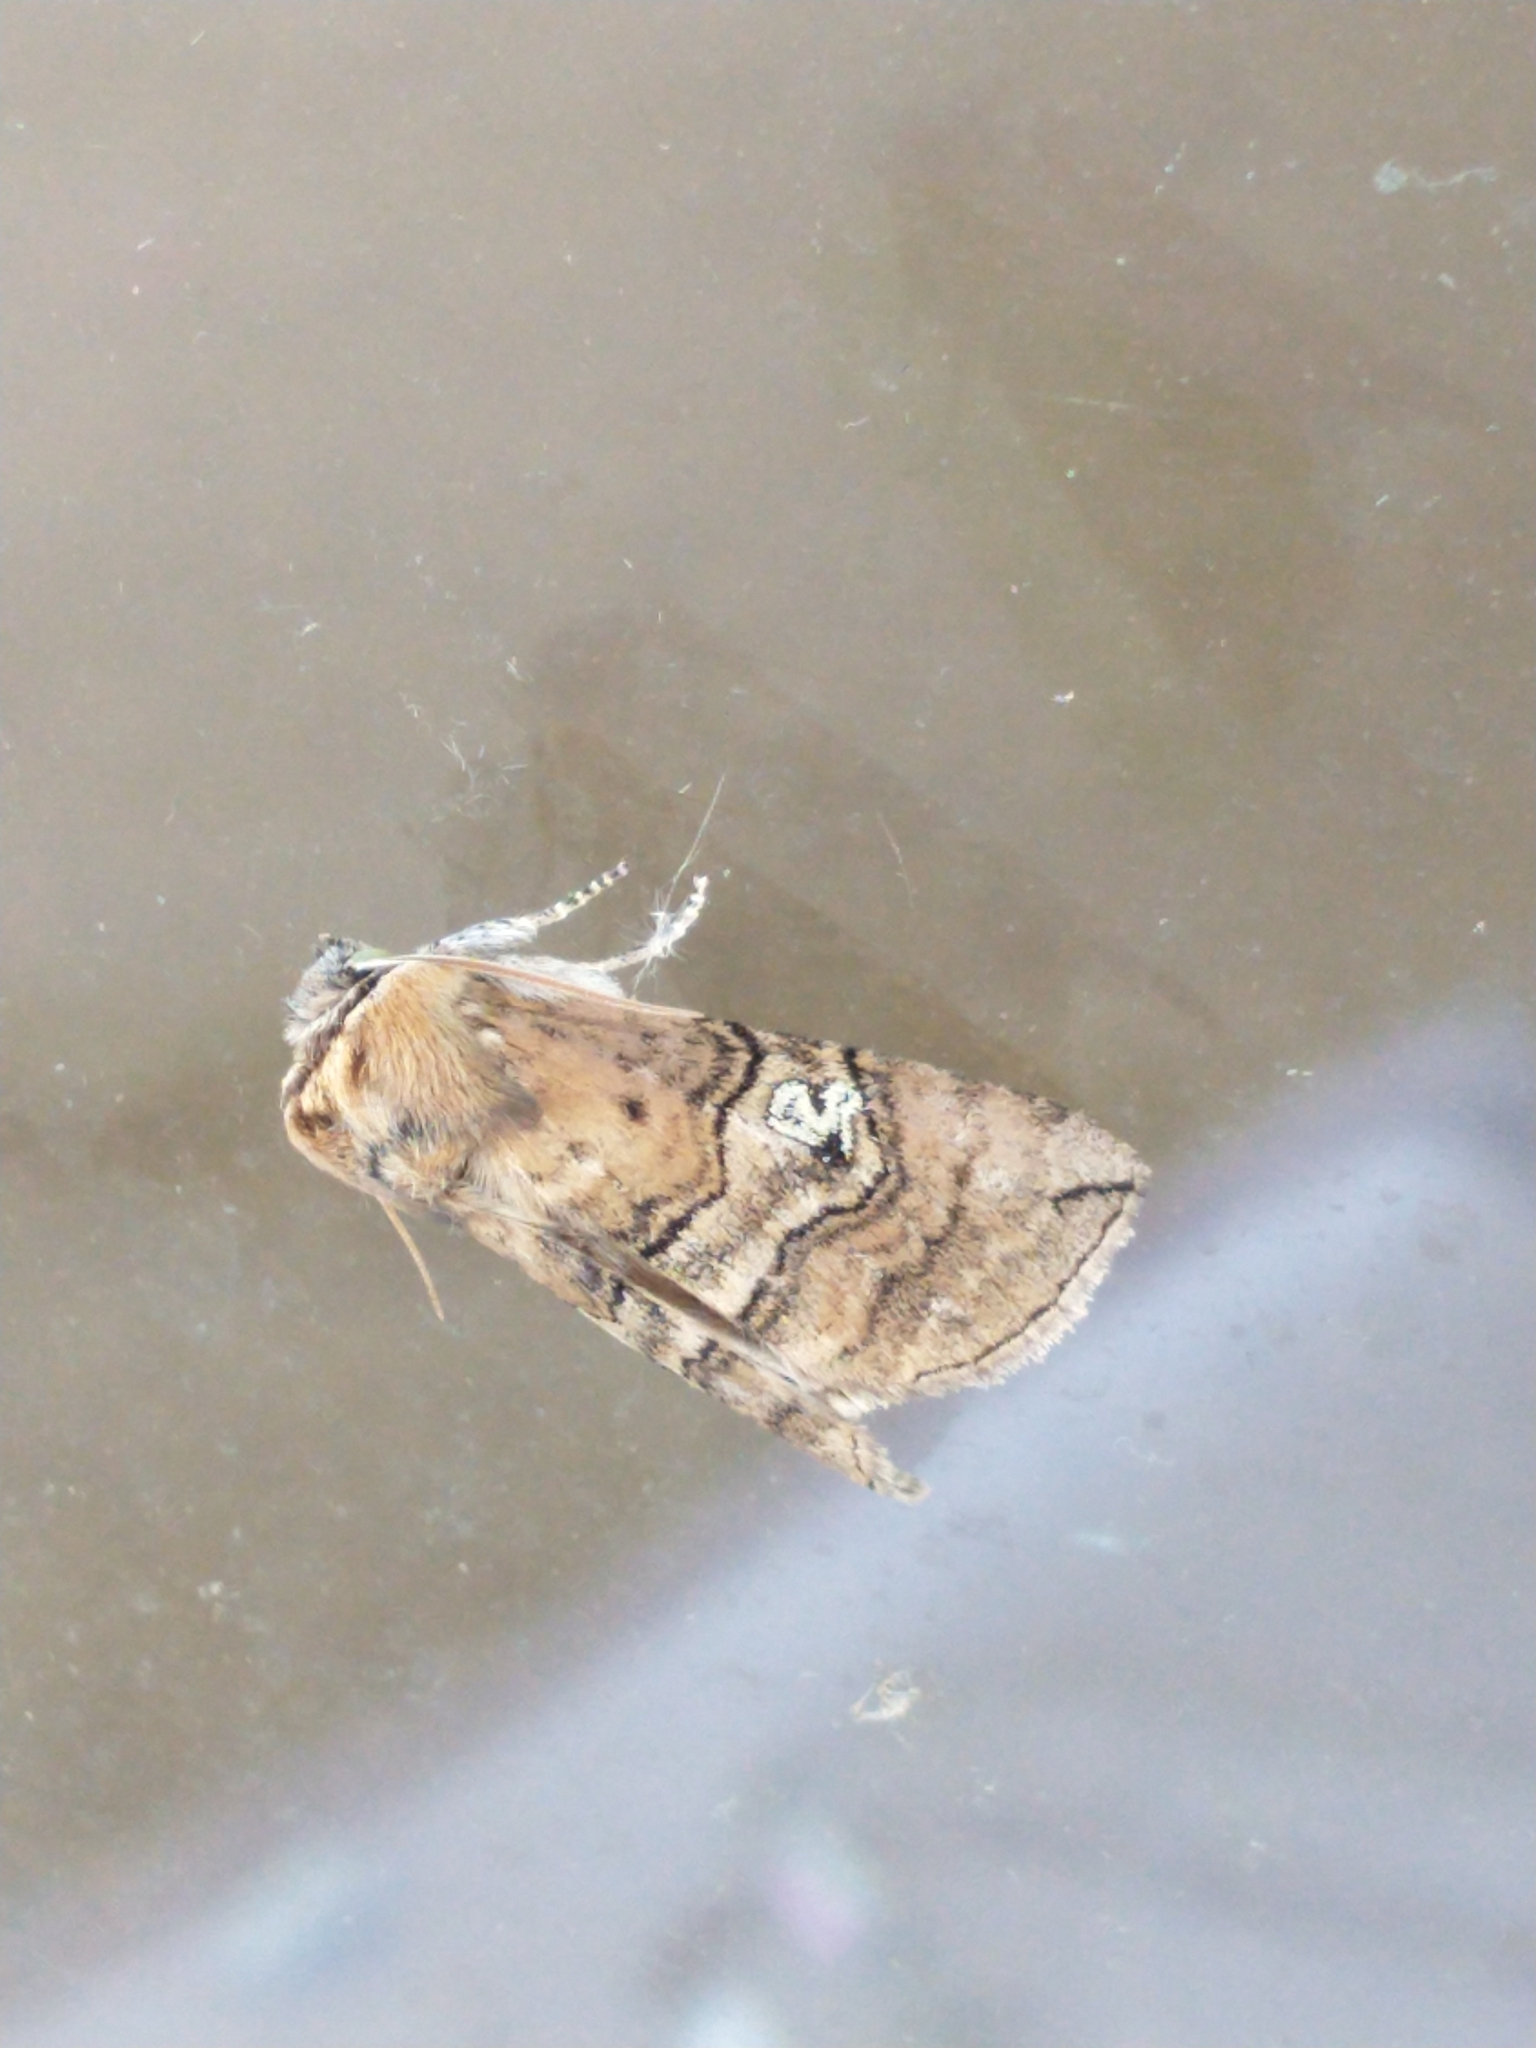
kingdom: Animalia
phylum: Arthropoda
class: Insecta
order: Lepidoptera
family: Drepanidae
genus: Tethea
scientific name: Tethea ocularis
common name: Figure of eighty
